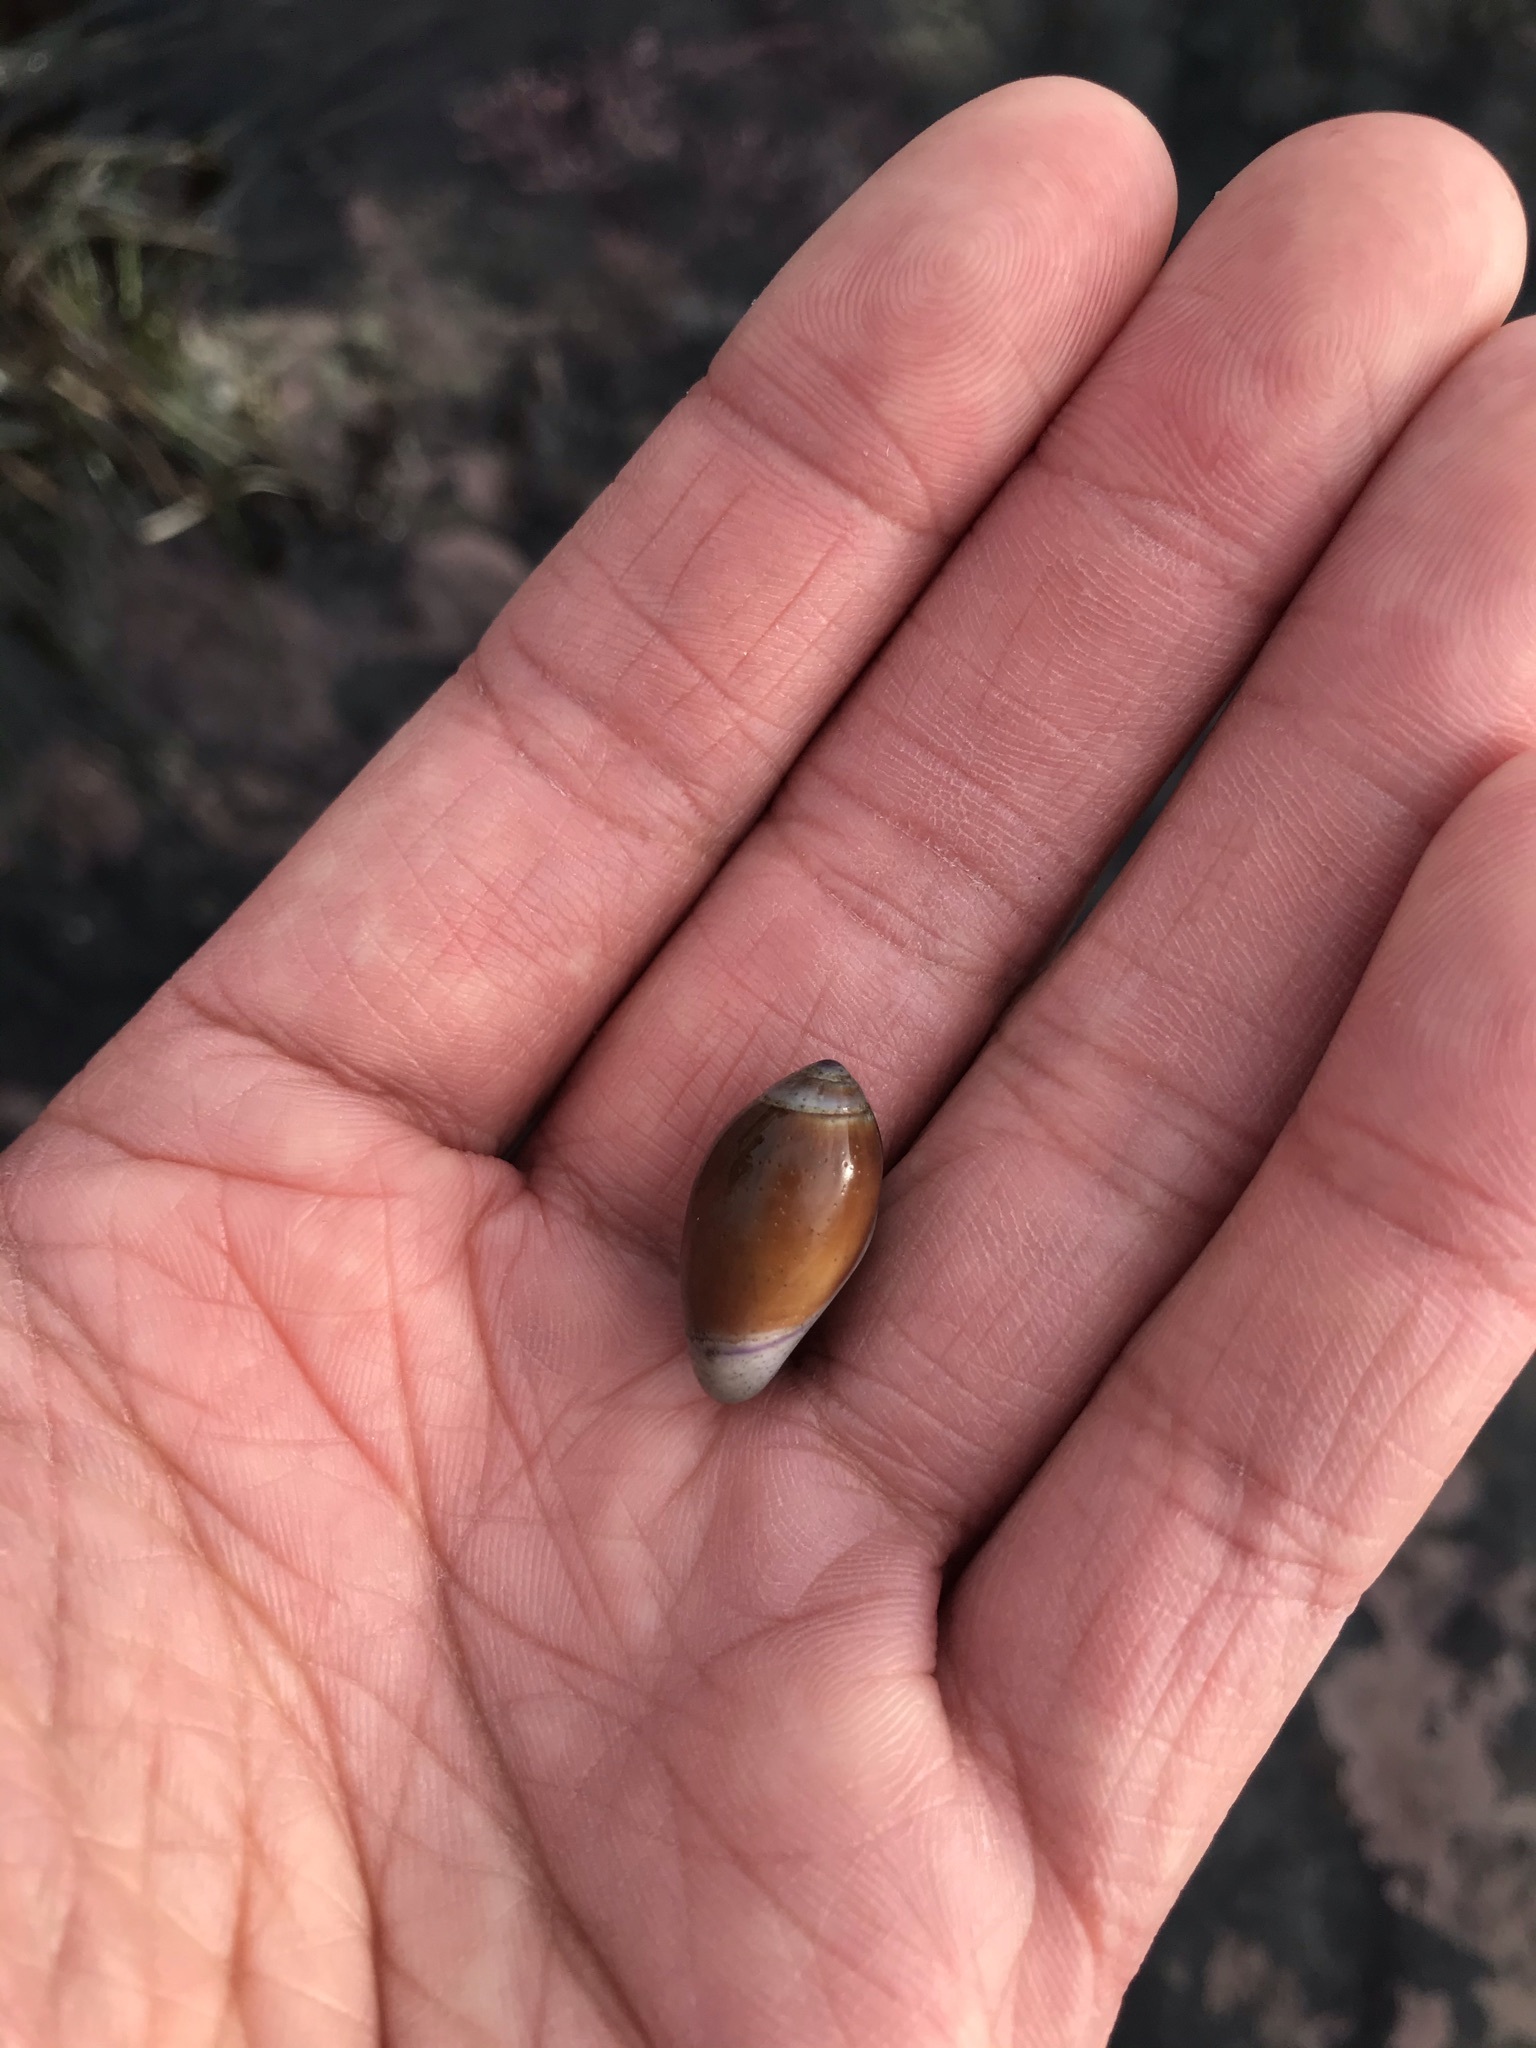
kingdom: Animalia
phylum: Mollusca
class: Gastropoda
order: Neogastropoda
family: Olividae
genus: Callianax
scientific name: Callianax biplicata
